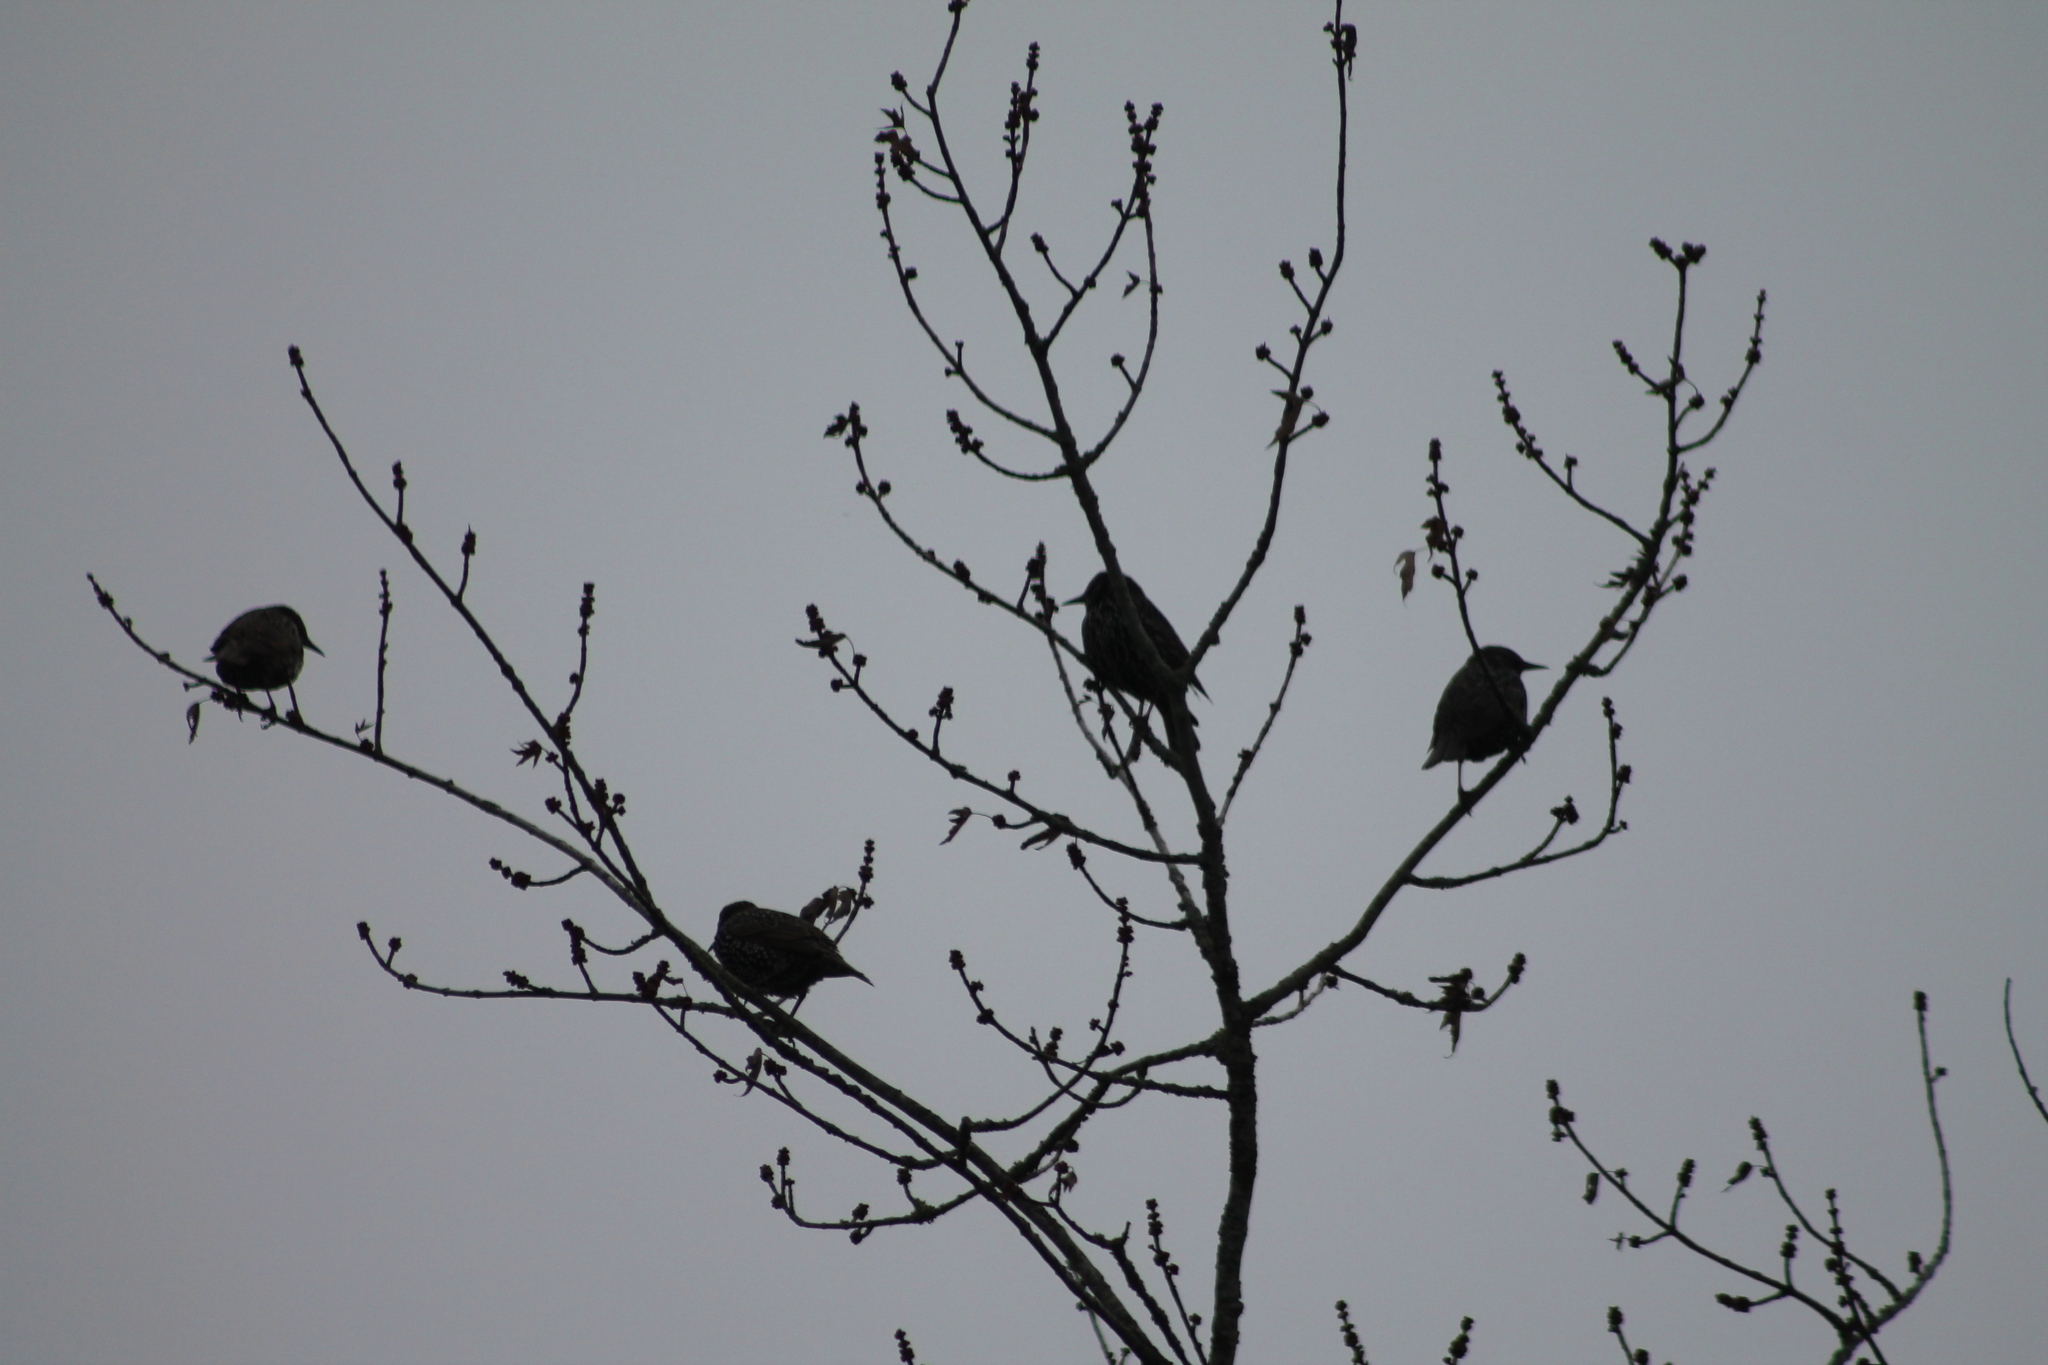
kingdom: Animalia
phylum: Chordata
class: Aves
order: Passeriformes
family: Sturnidae
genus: Sturnus
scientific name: Sturnus vulgaris
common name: Common starling
